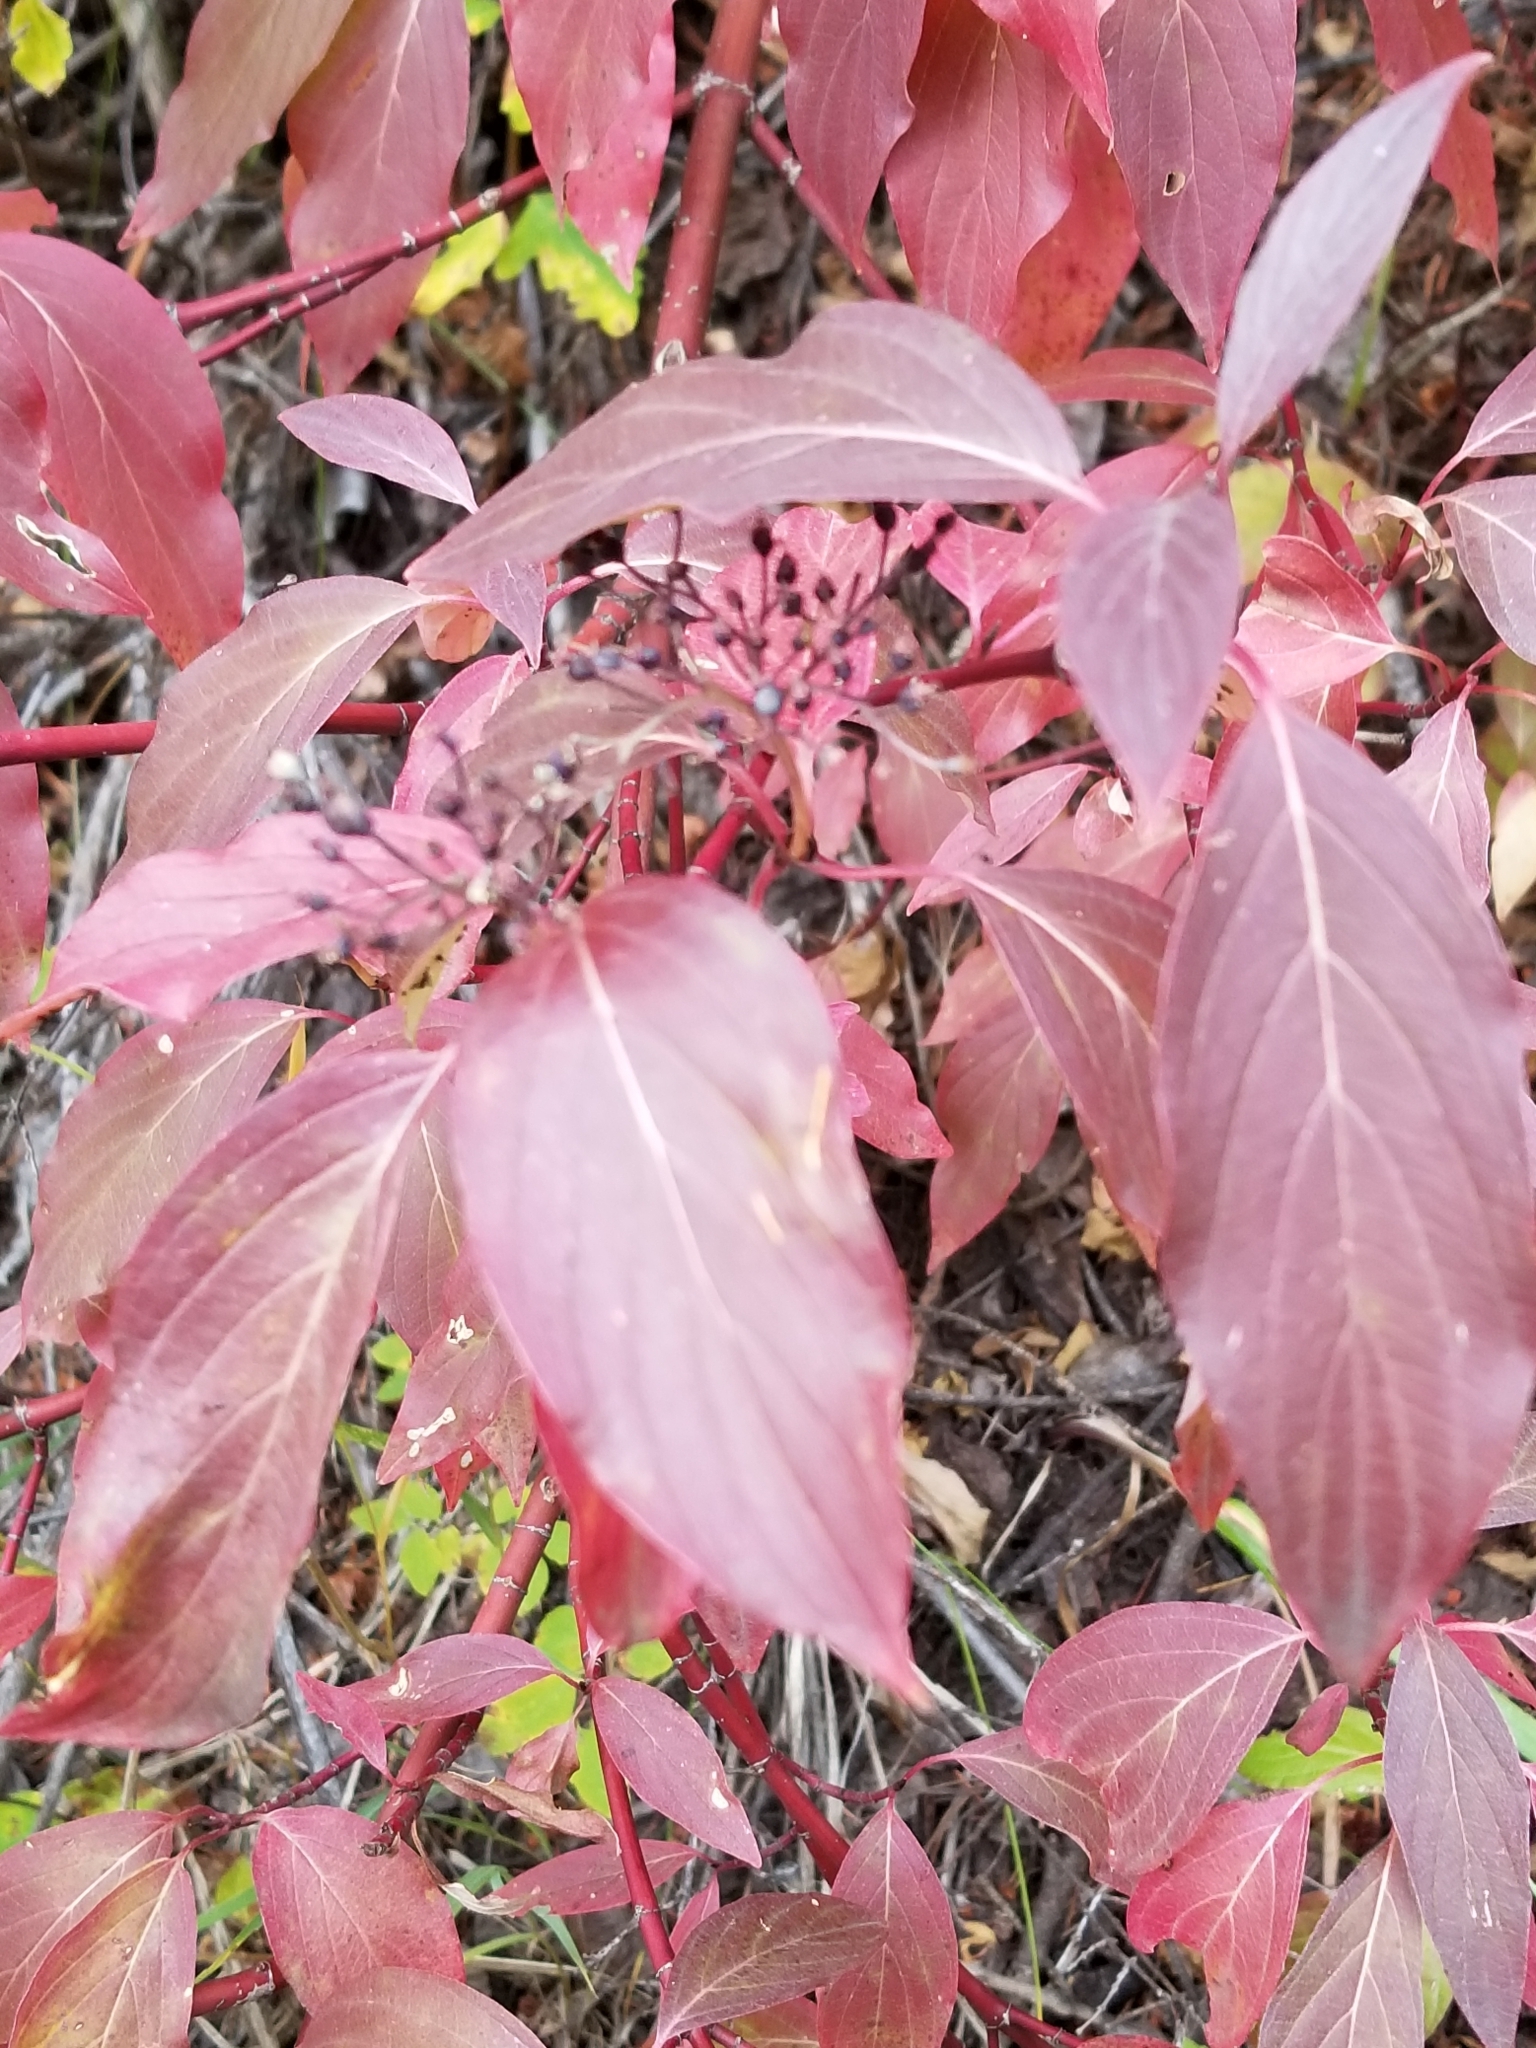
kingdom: Plantae
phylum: Tracheophyta
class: Magnoliopsida
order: Cornales
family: Cornaceae
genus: Cornus
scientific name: Cornus sericea
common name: Red-osier dogwood
